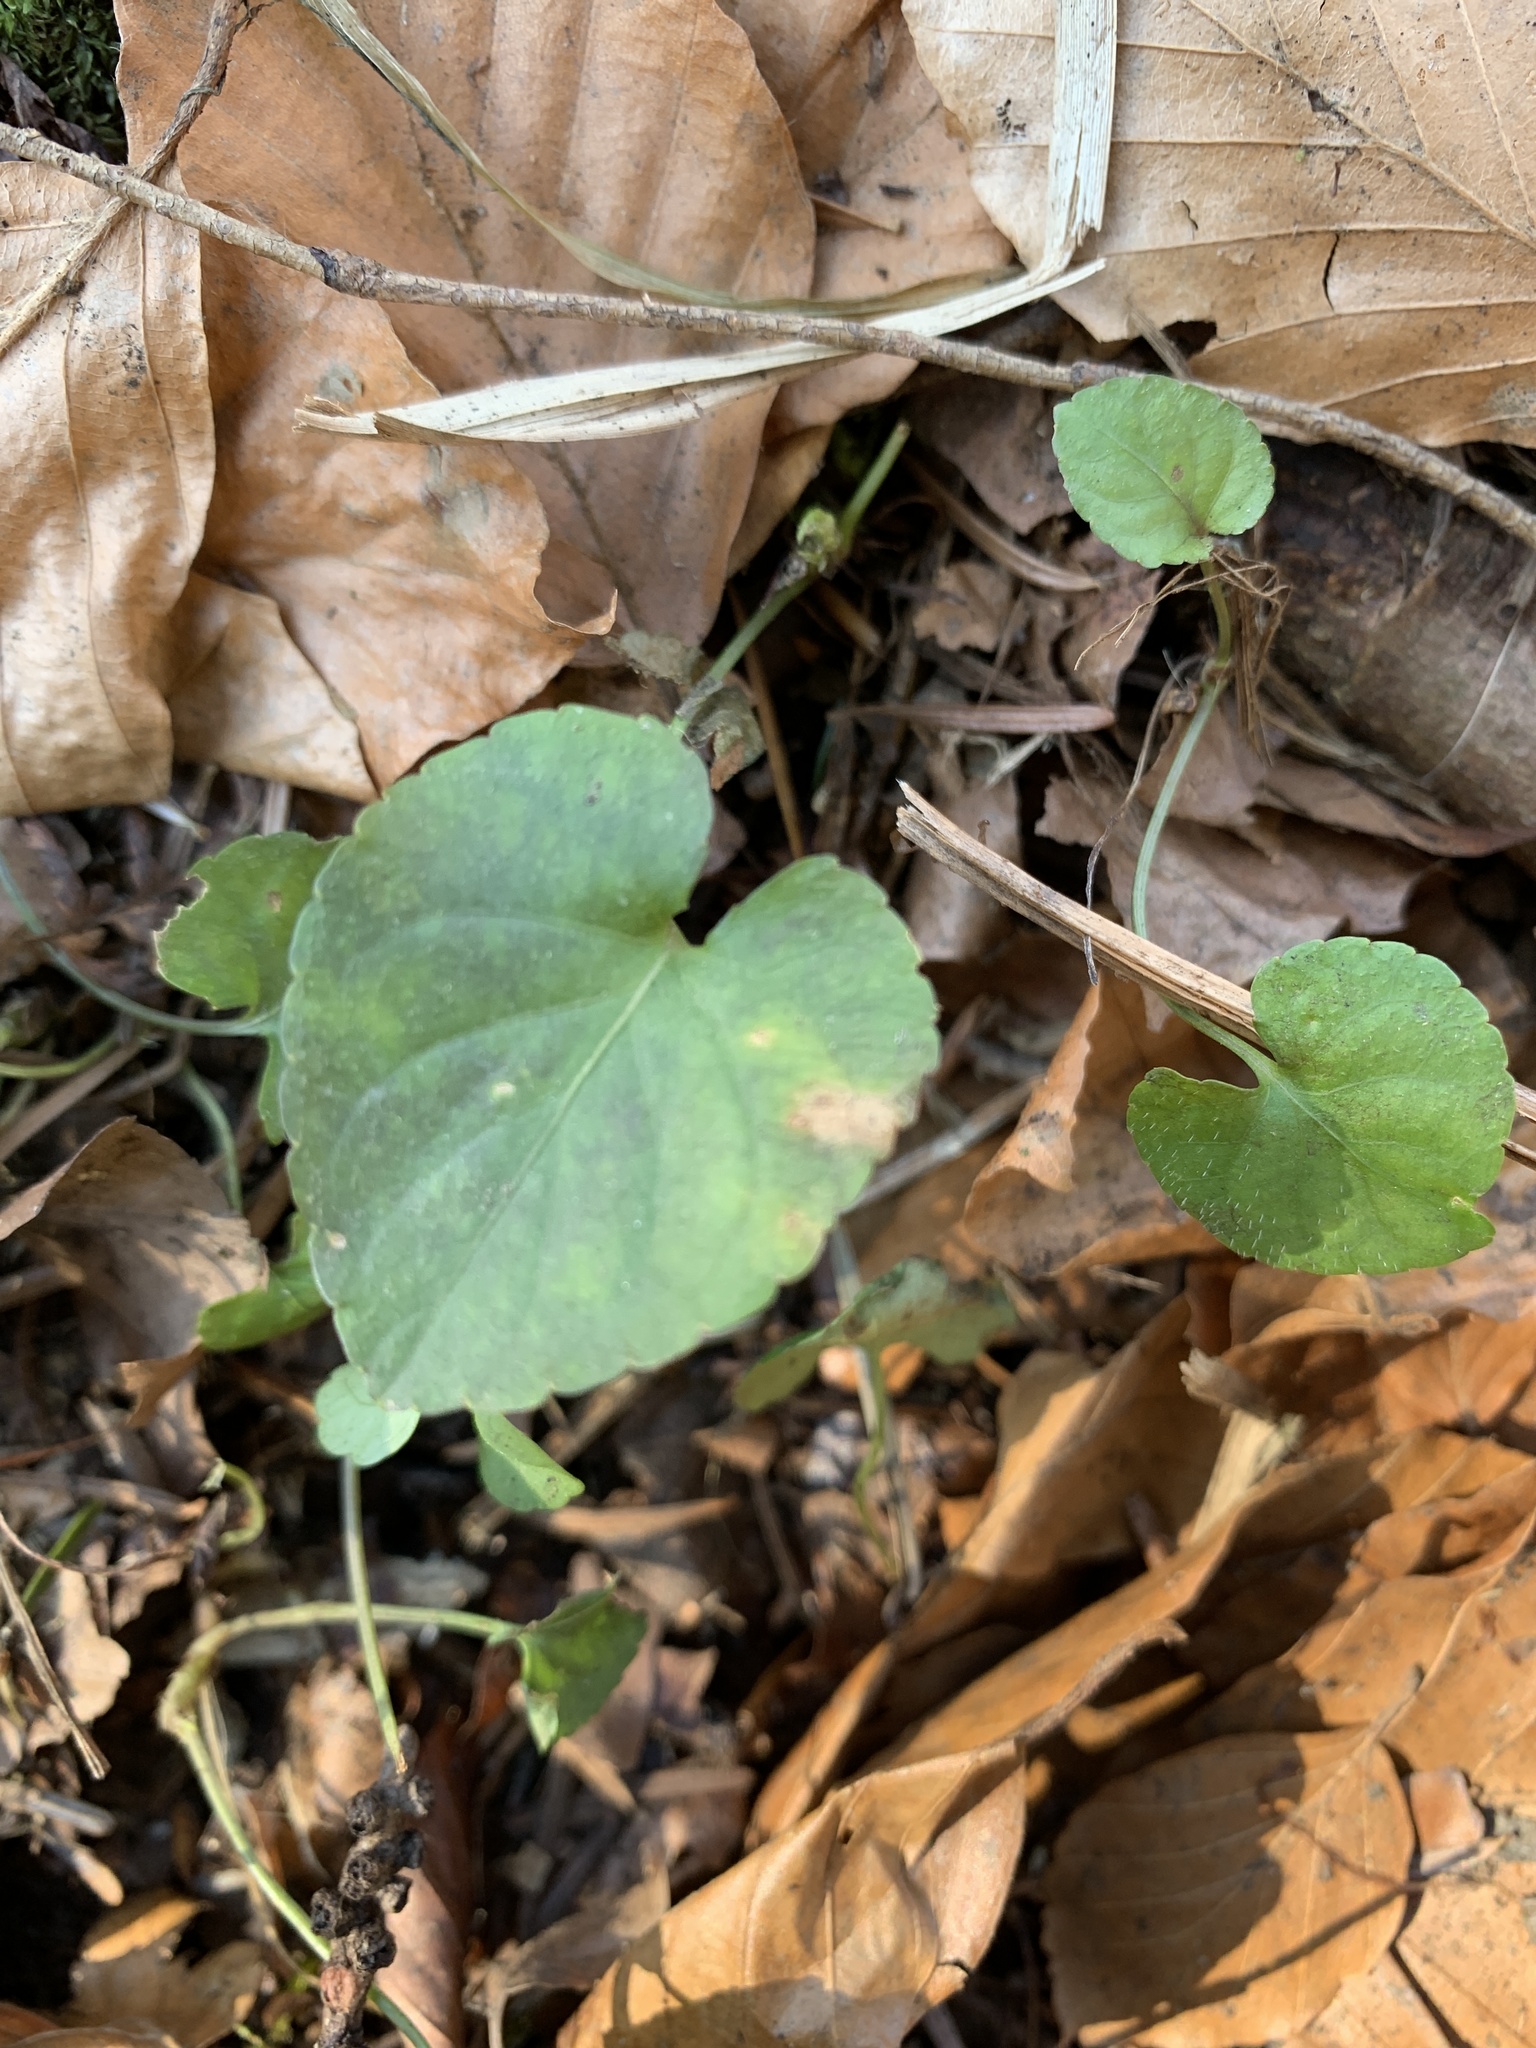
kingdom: Plantae
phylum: Tracheophyta
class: Magnoliopsida
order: Malpighiales
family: Violaceae
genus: Viola
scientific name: Viola reichenbachiana
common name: Early dog-violet
